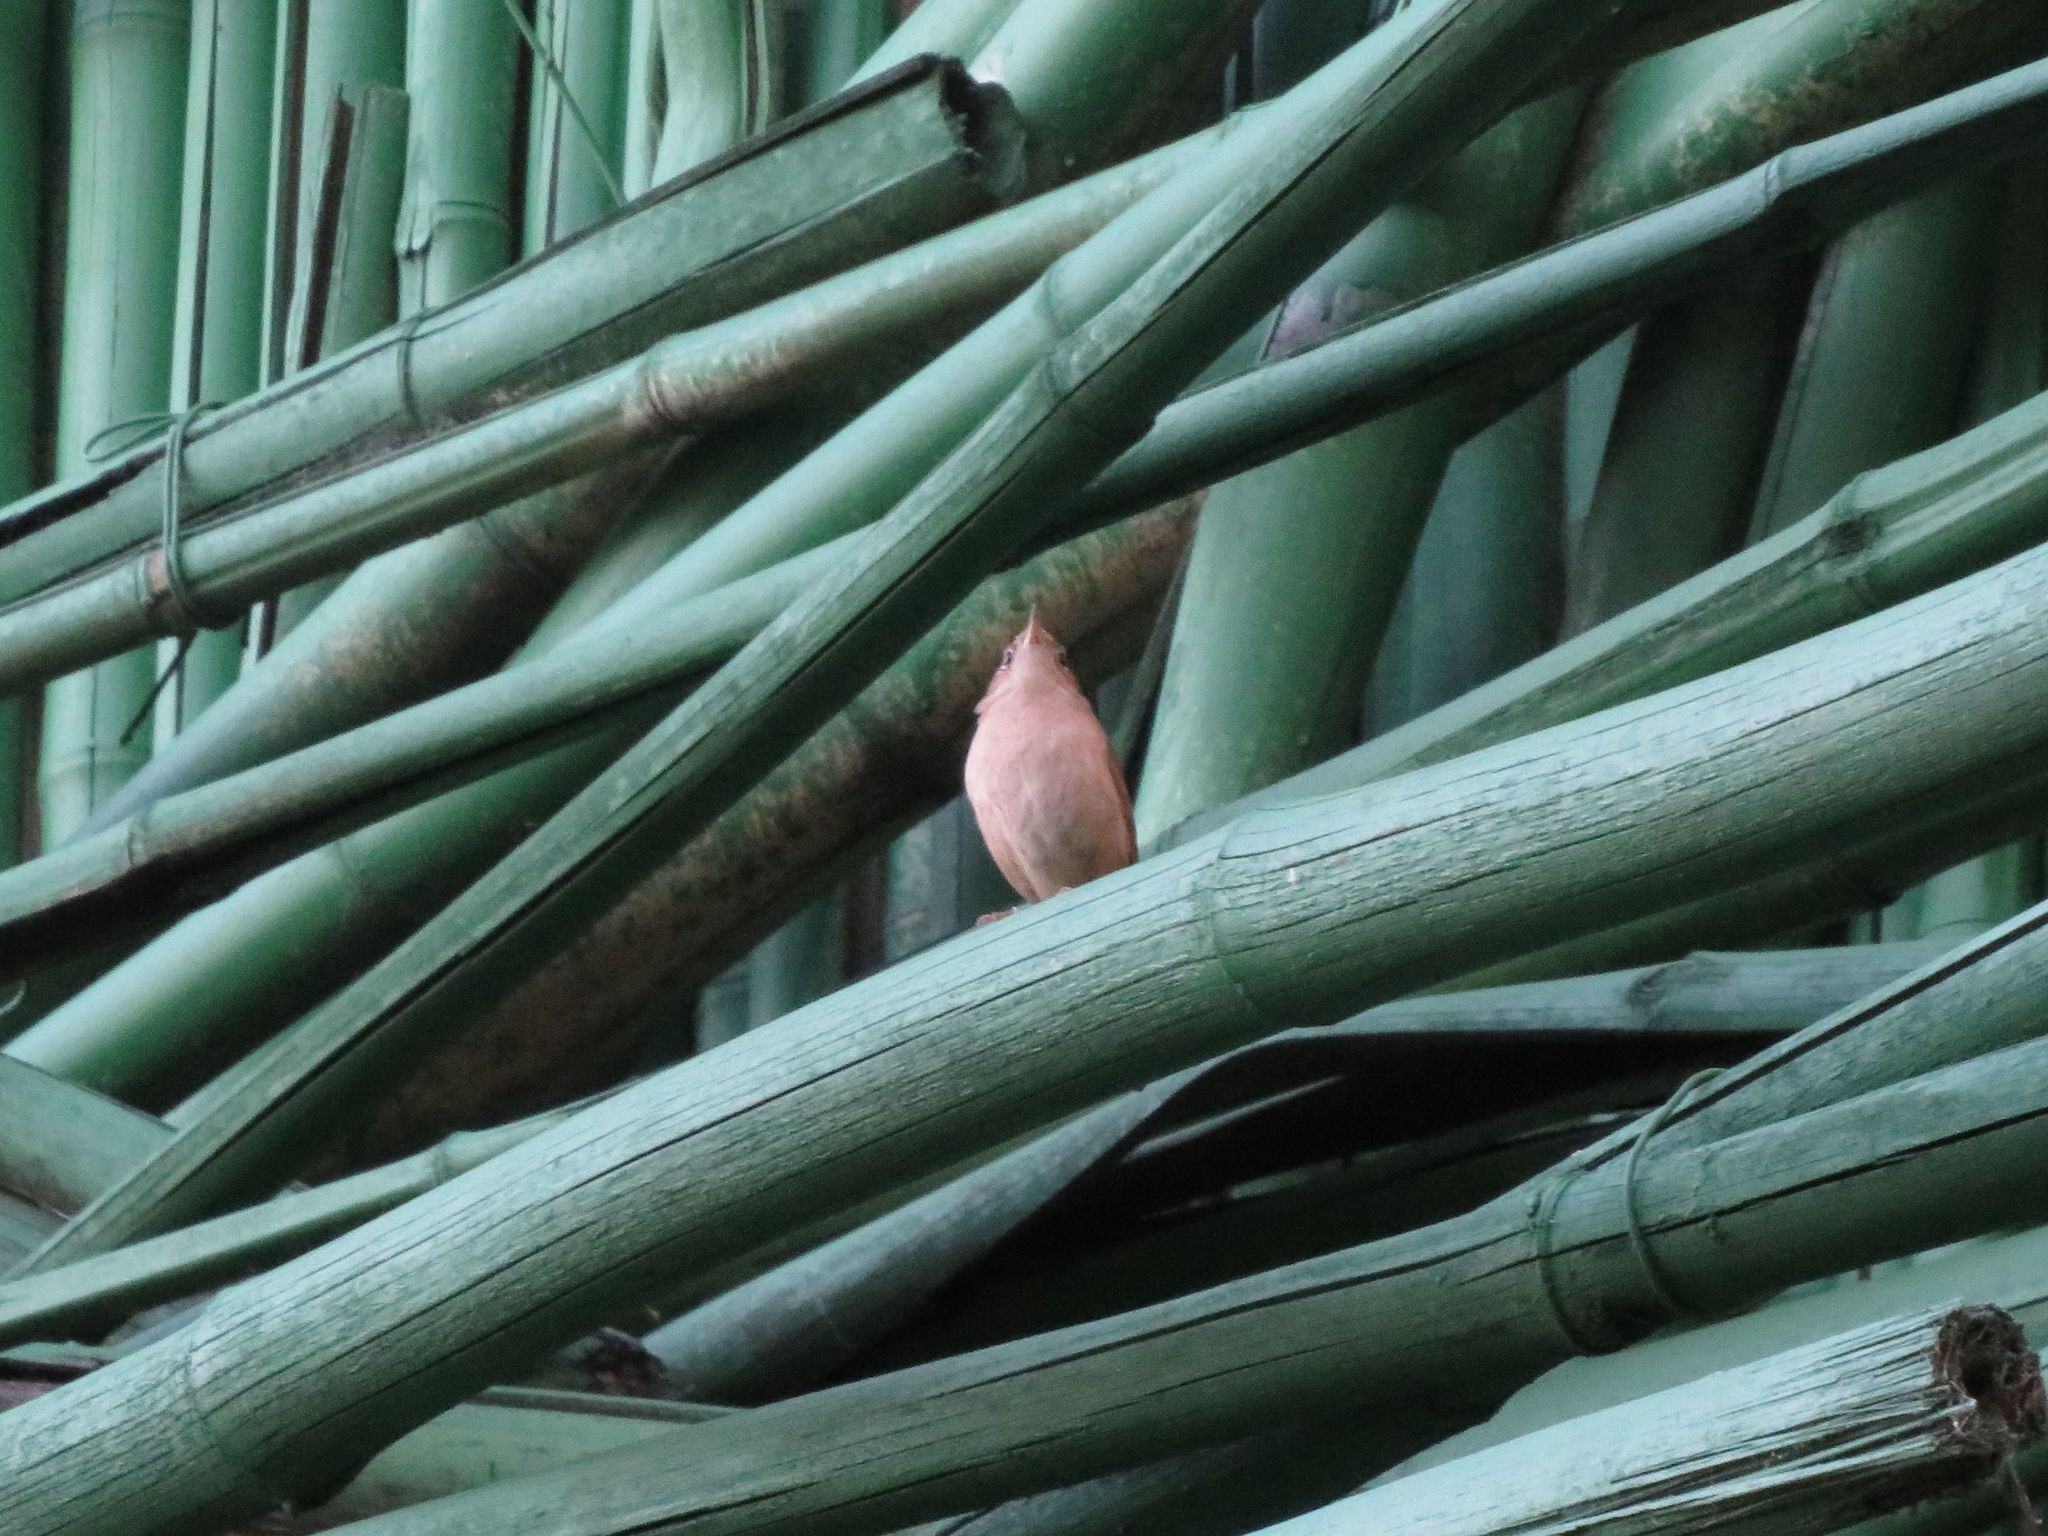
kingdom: Animalia
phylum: Chordata
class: Aves
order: Passeriformes
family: Troglodytidae
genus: Troglodytes
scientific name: Troglodytes aedon
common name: House wren
